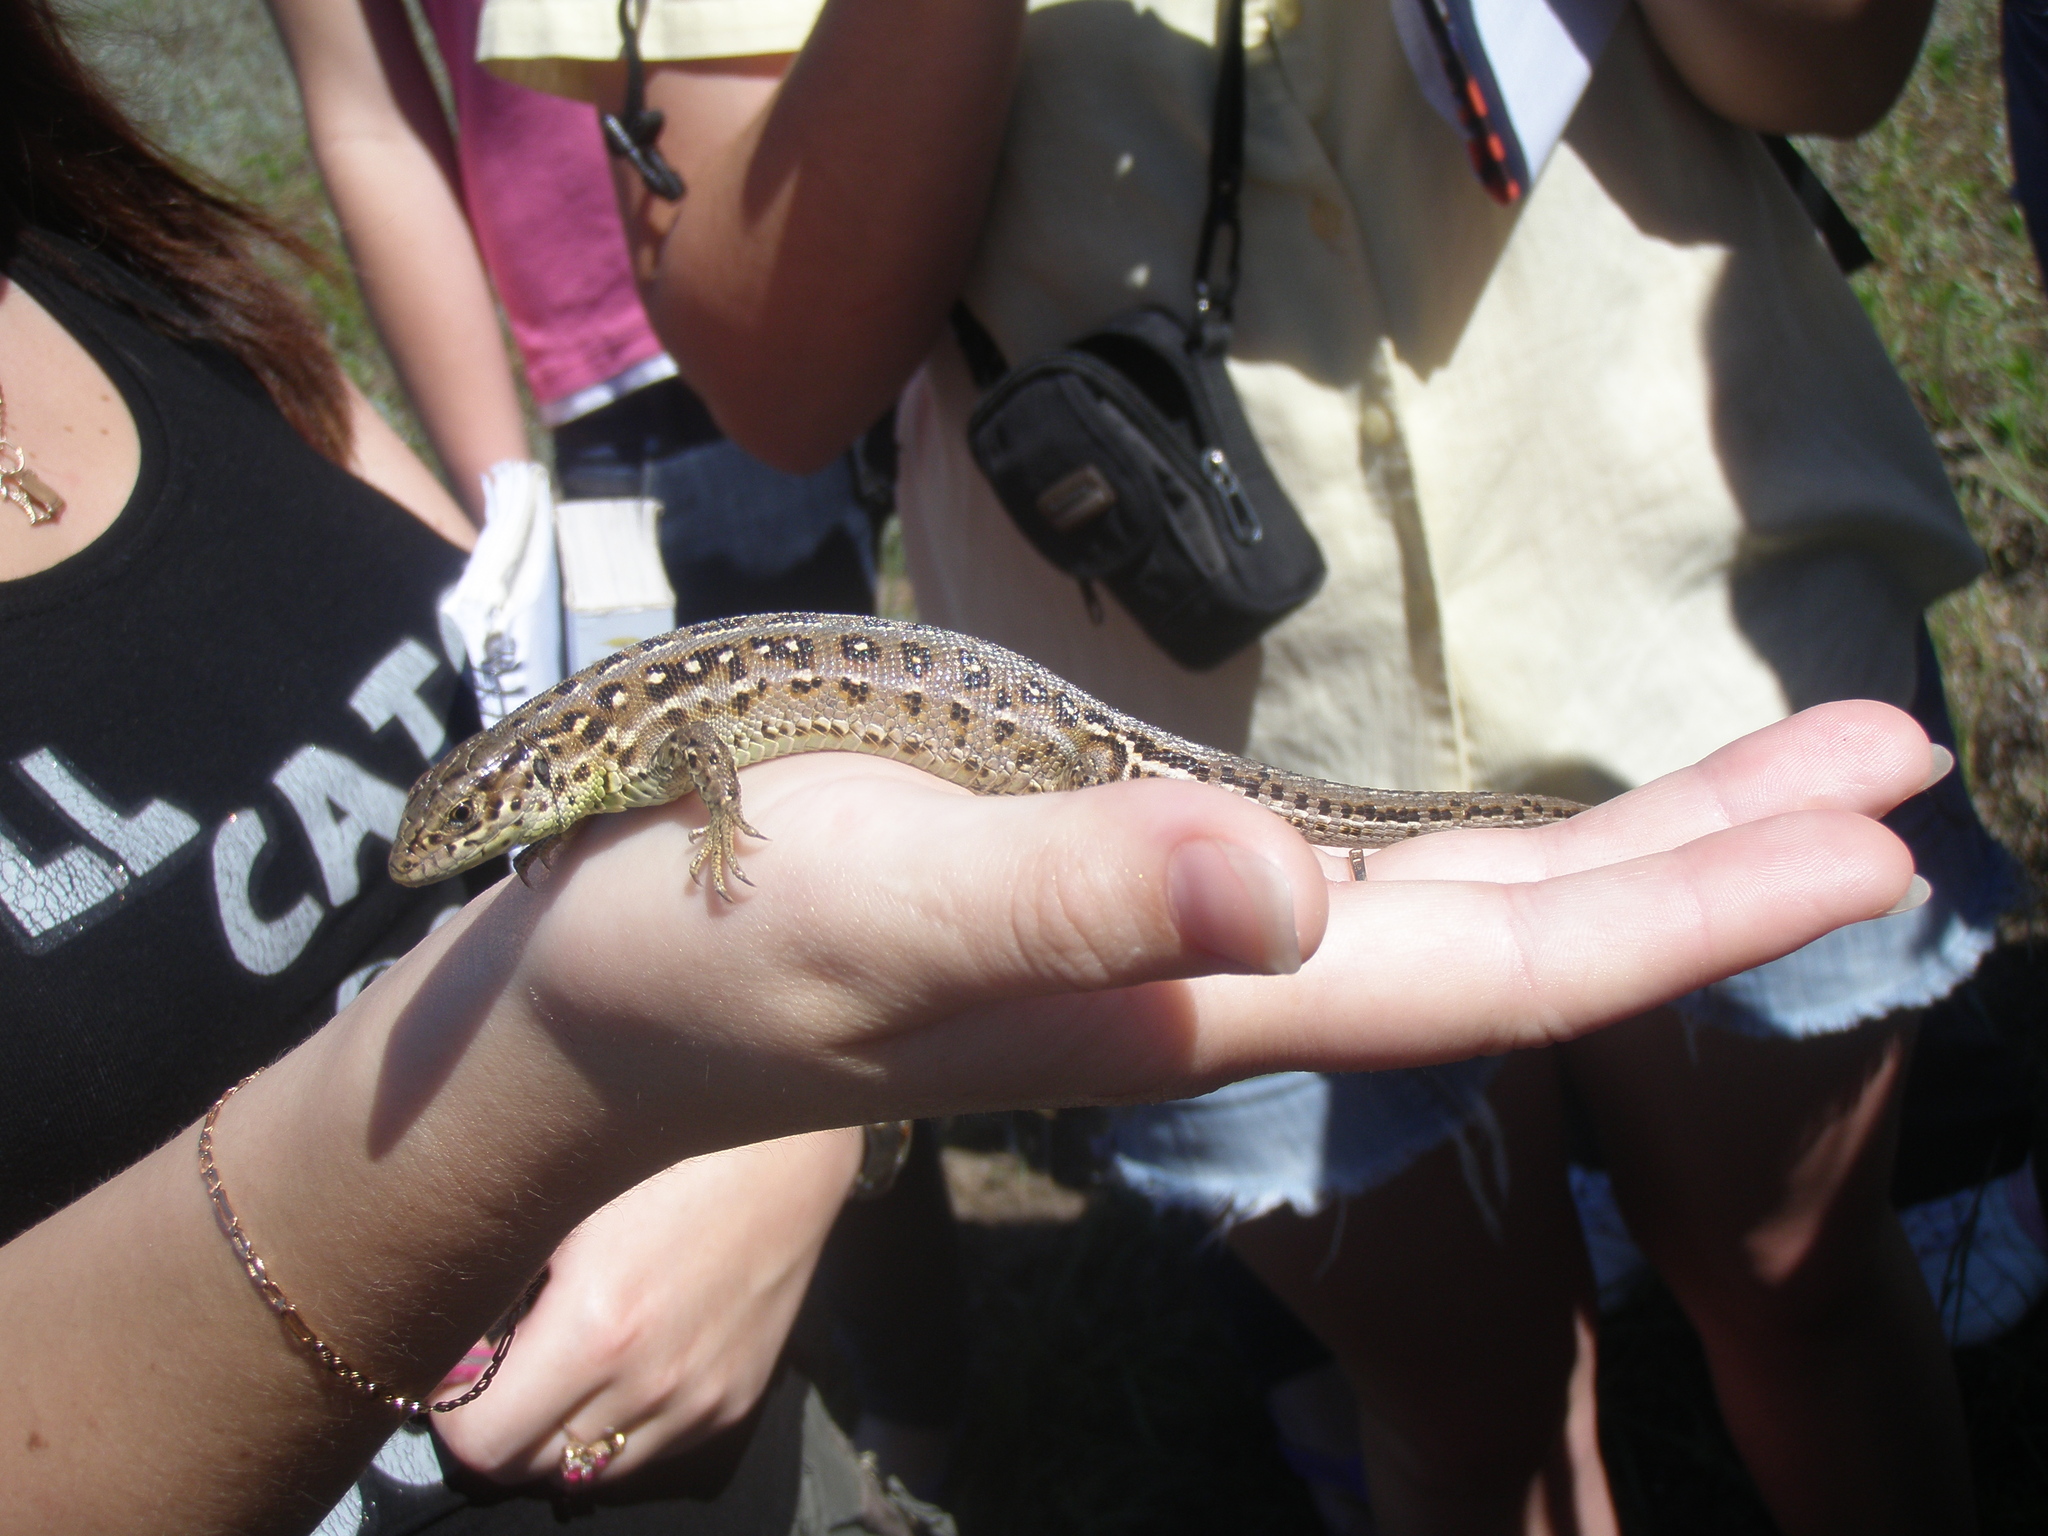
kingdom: Animalia
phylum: Chordata
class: Squamata
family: Lacertidae
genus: Lacerta
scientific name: Lacerta agilis
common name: Sand lizard
